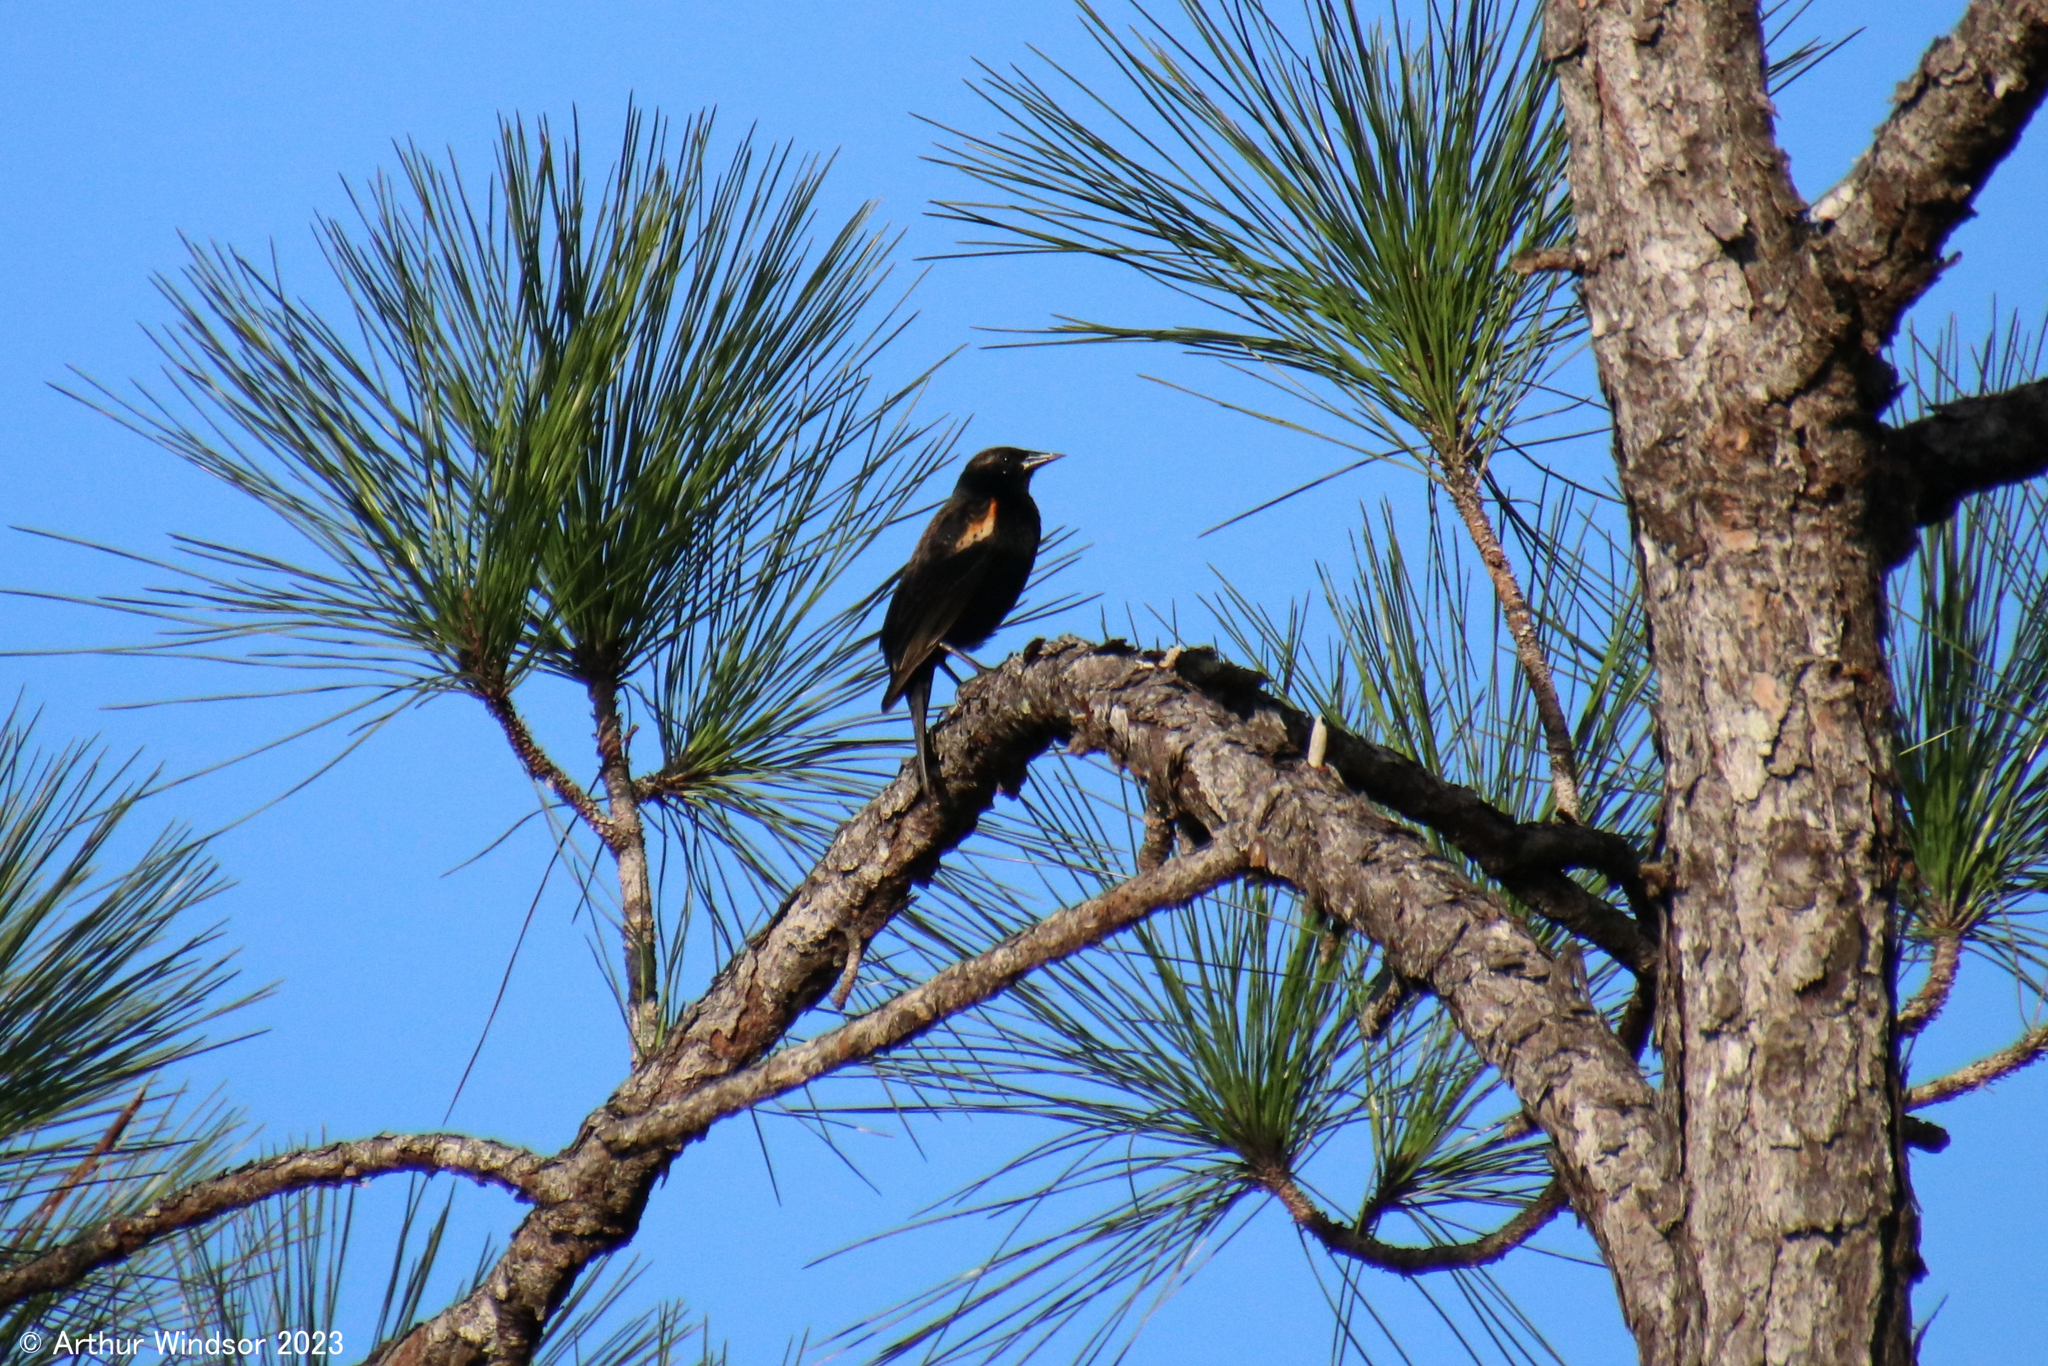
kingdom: Animalia
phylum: Chordata
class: Aves
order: Passeriformes
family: Icteridae
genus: Agelaius
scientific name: Agelaius phoeniceus
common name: Red-winged blackbird
